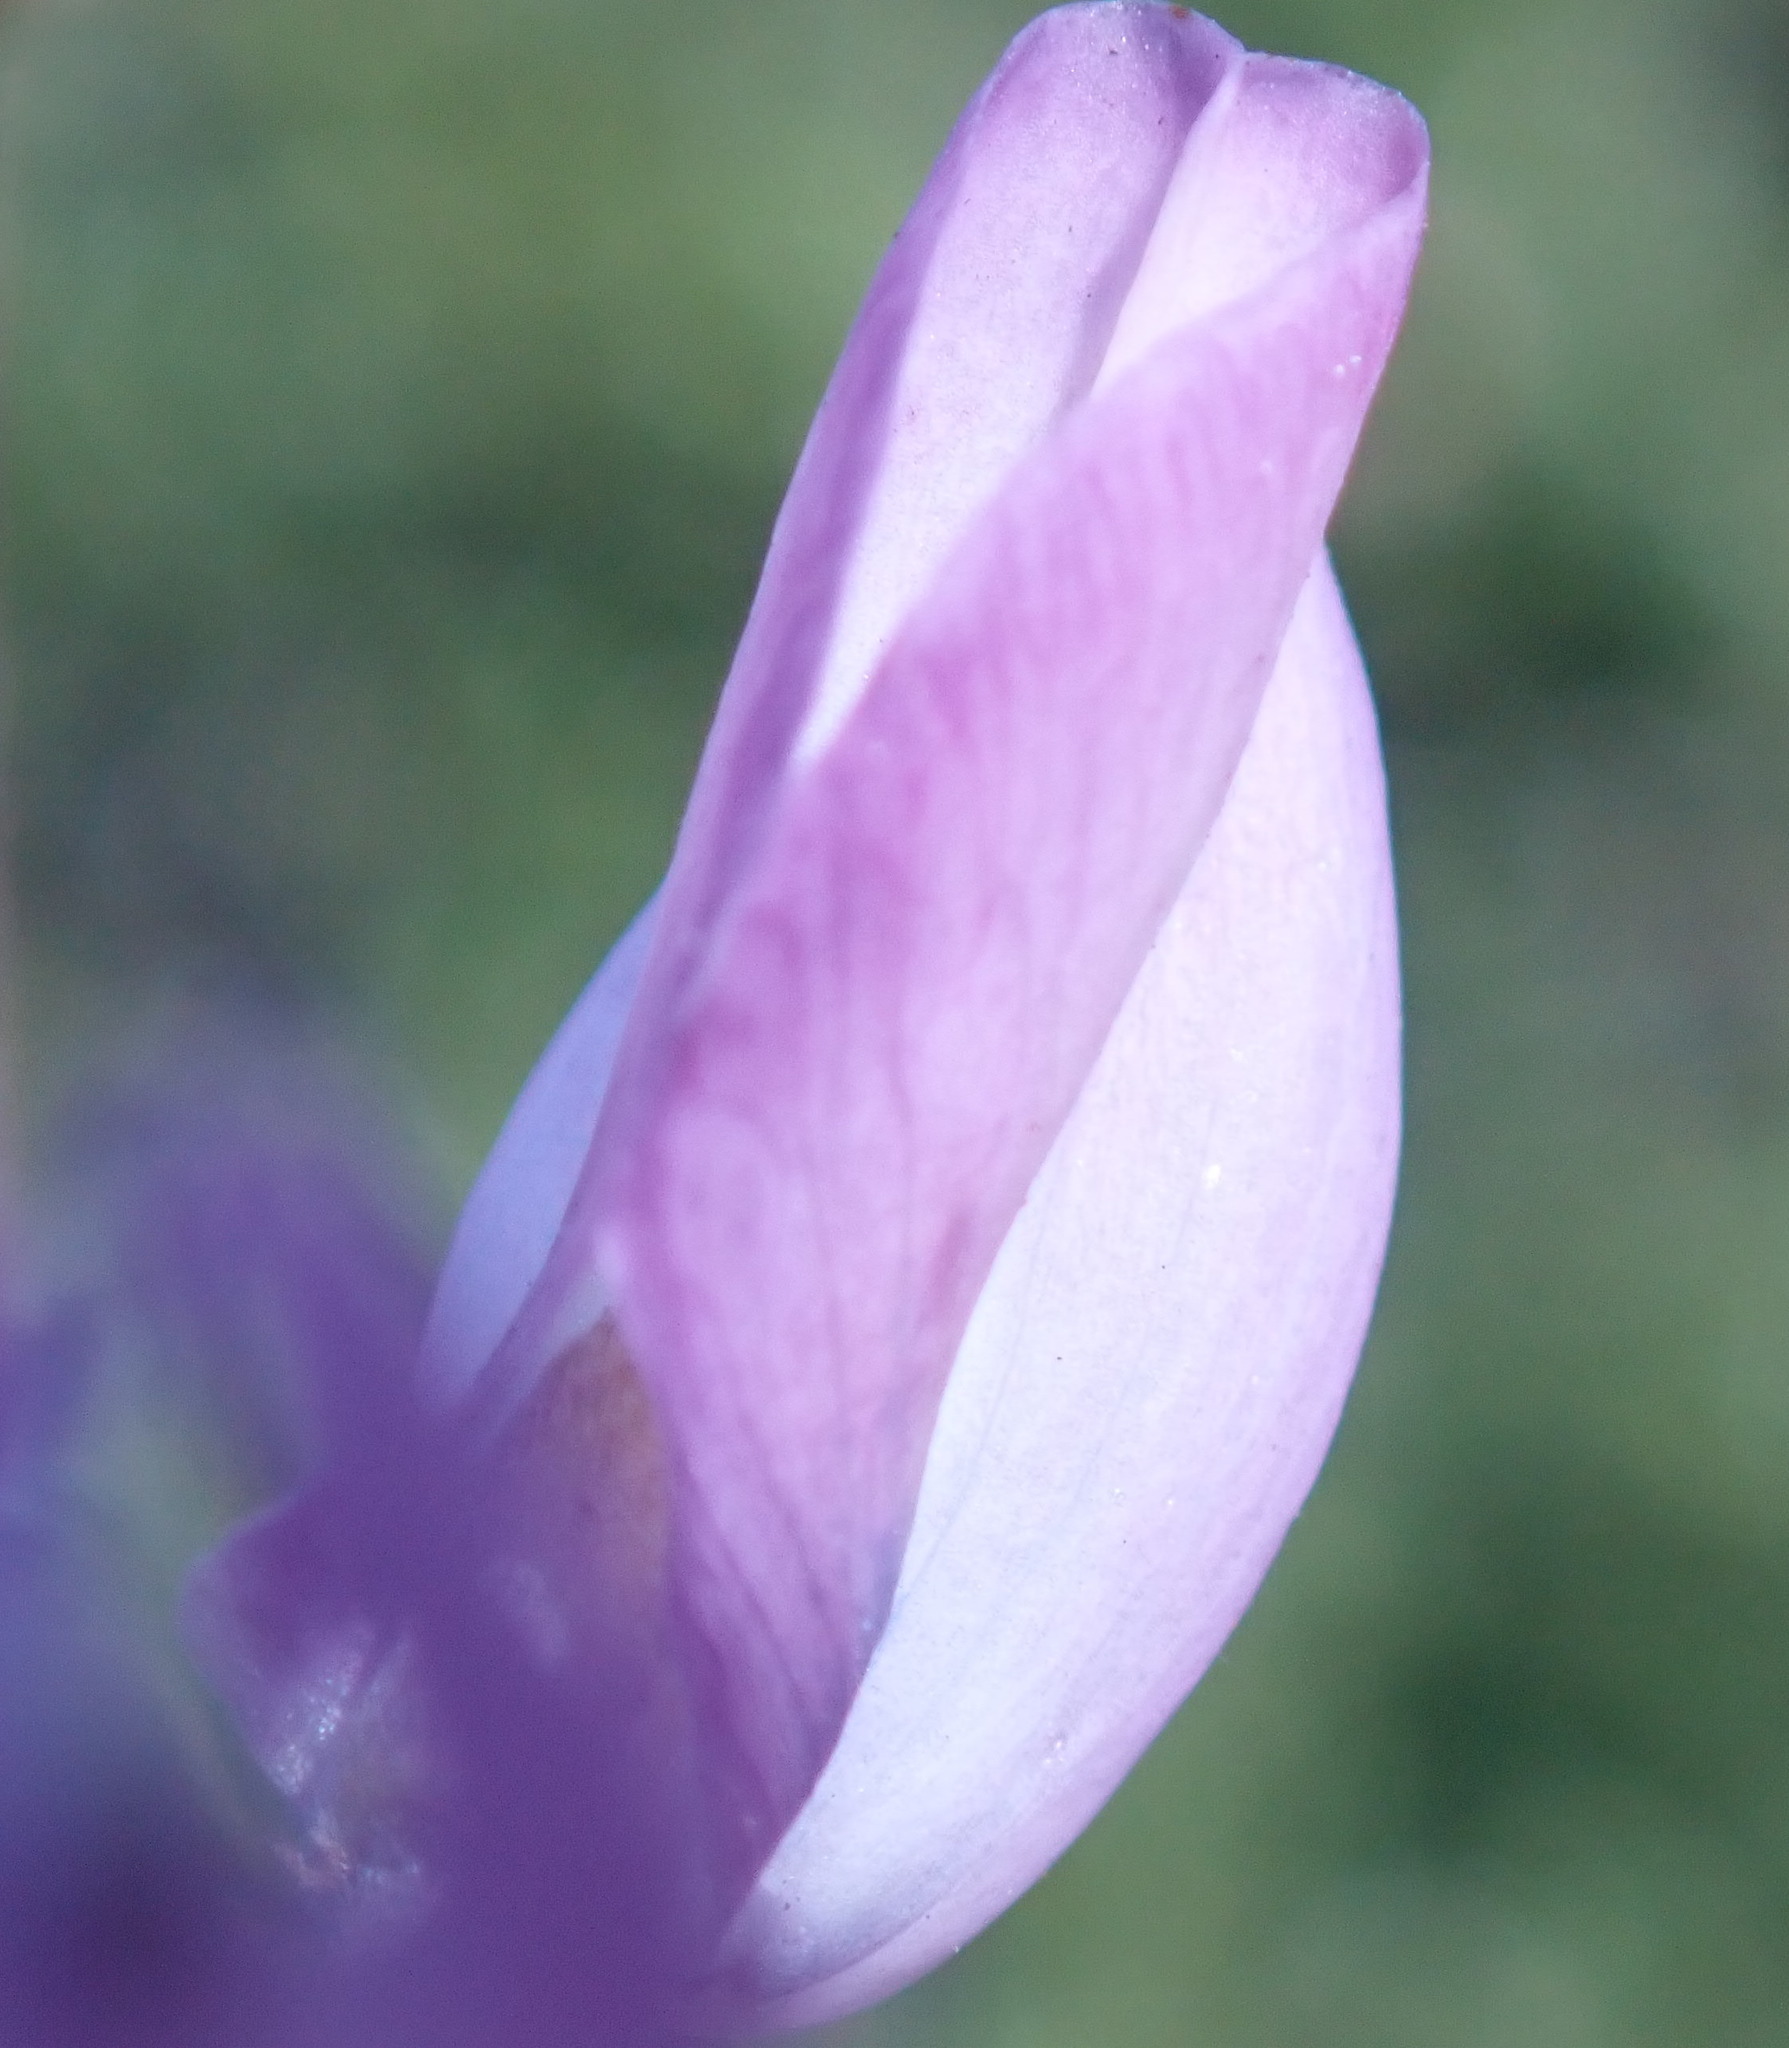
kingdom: Plantae
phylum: Tracheophyta
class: Magnoliopsida
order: Fabales
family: Fabaceae
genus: Lupinus
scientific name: Lupinus arboreus
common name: Yellow bush lupine
